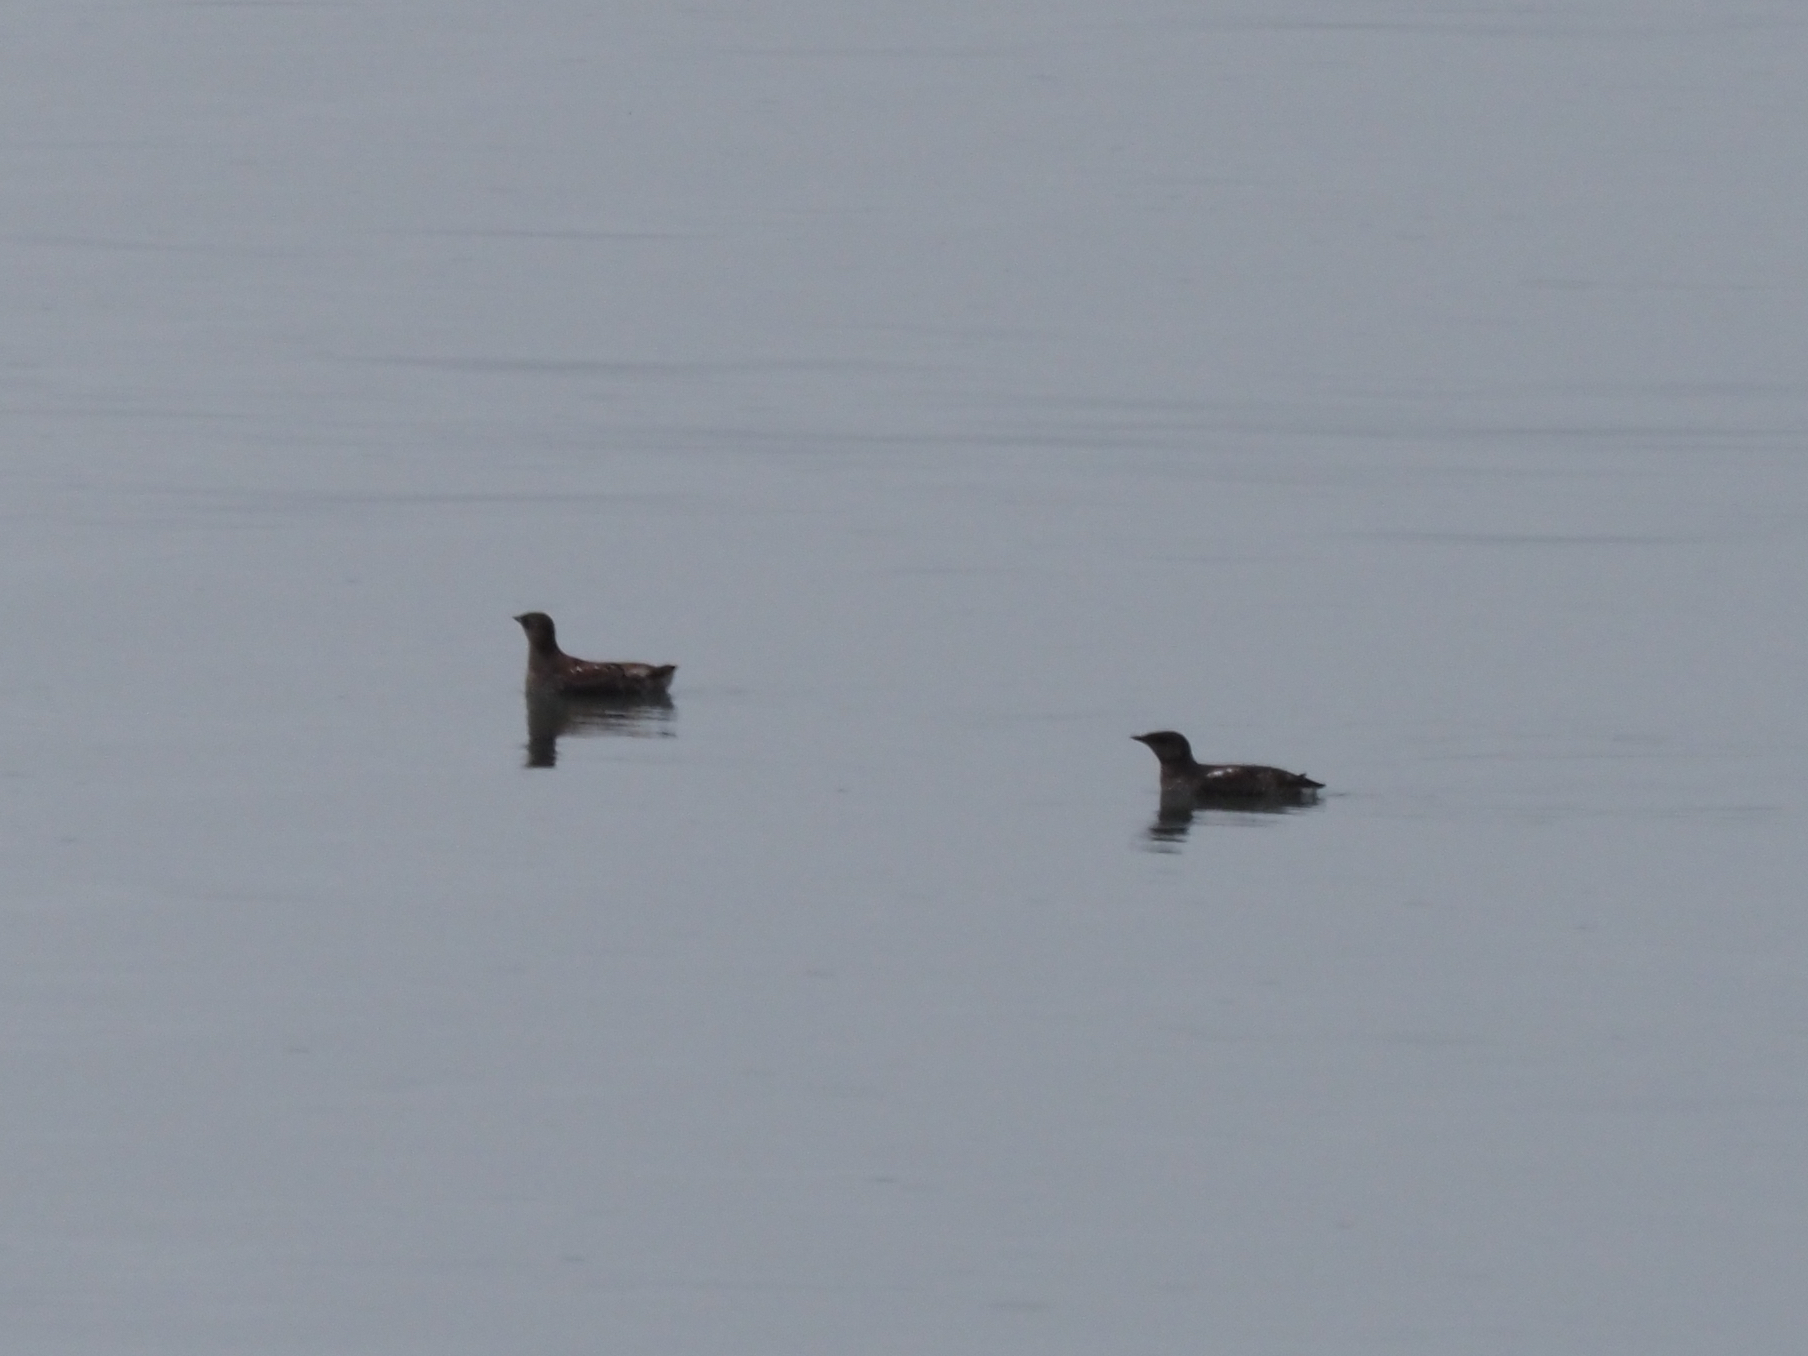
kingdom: Animalia
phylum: Chordata
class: Aves
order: Charadriiformes
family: Alcidae
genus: Brachyramphus
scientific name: Brachyramphus marmoratus
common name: Marbled murrelet
